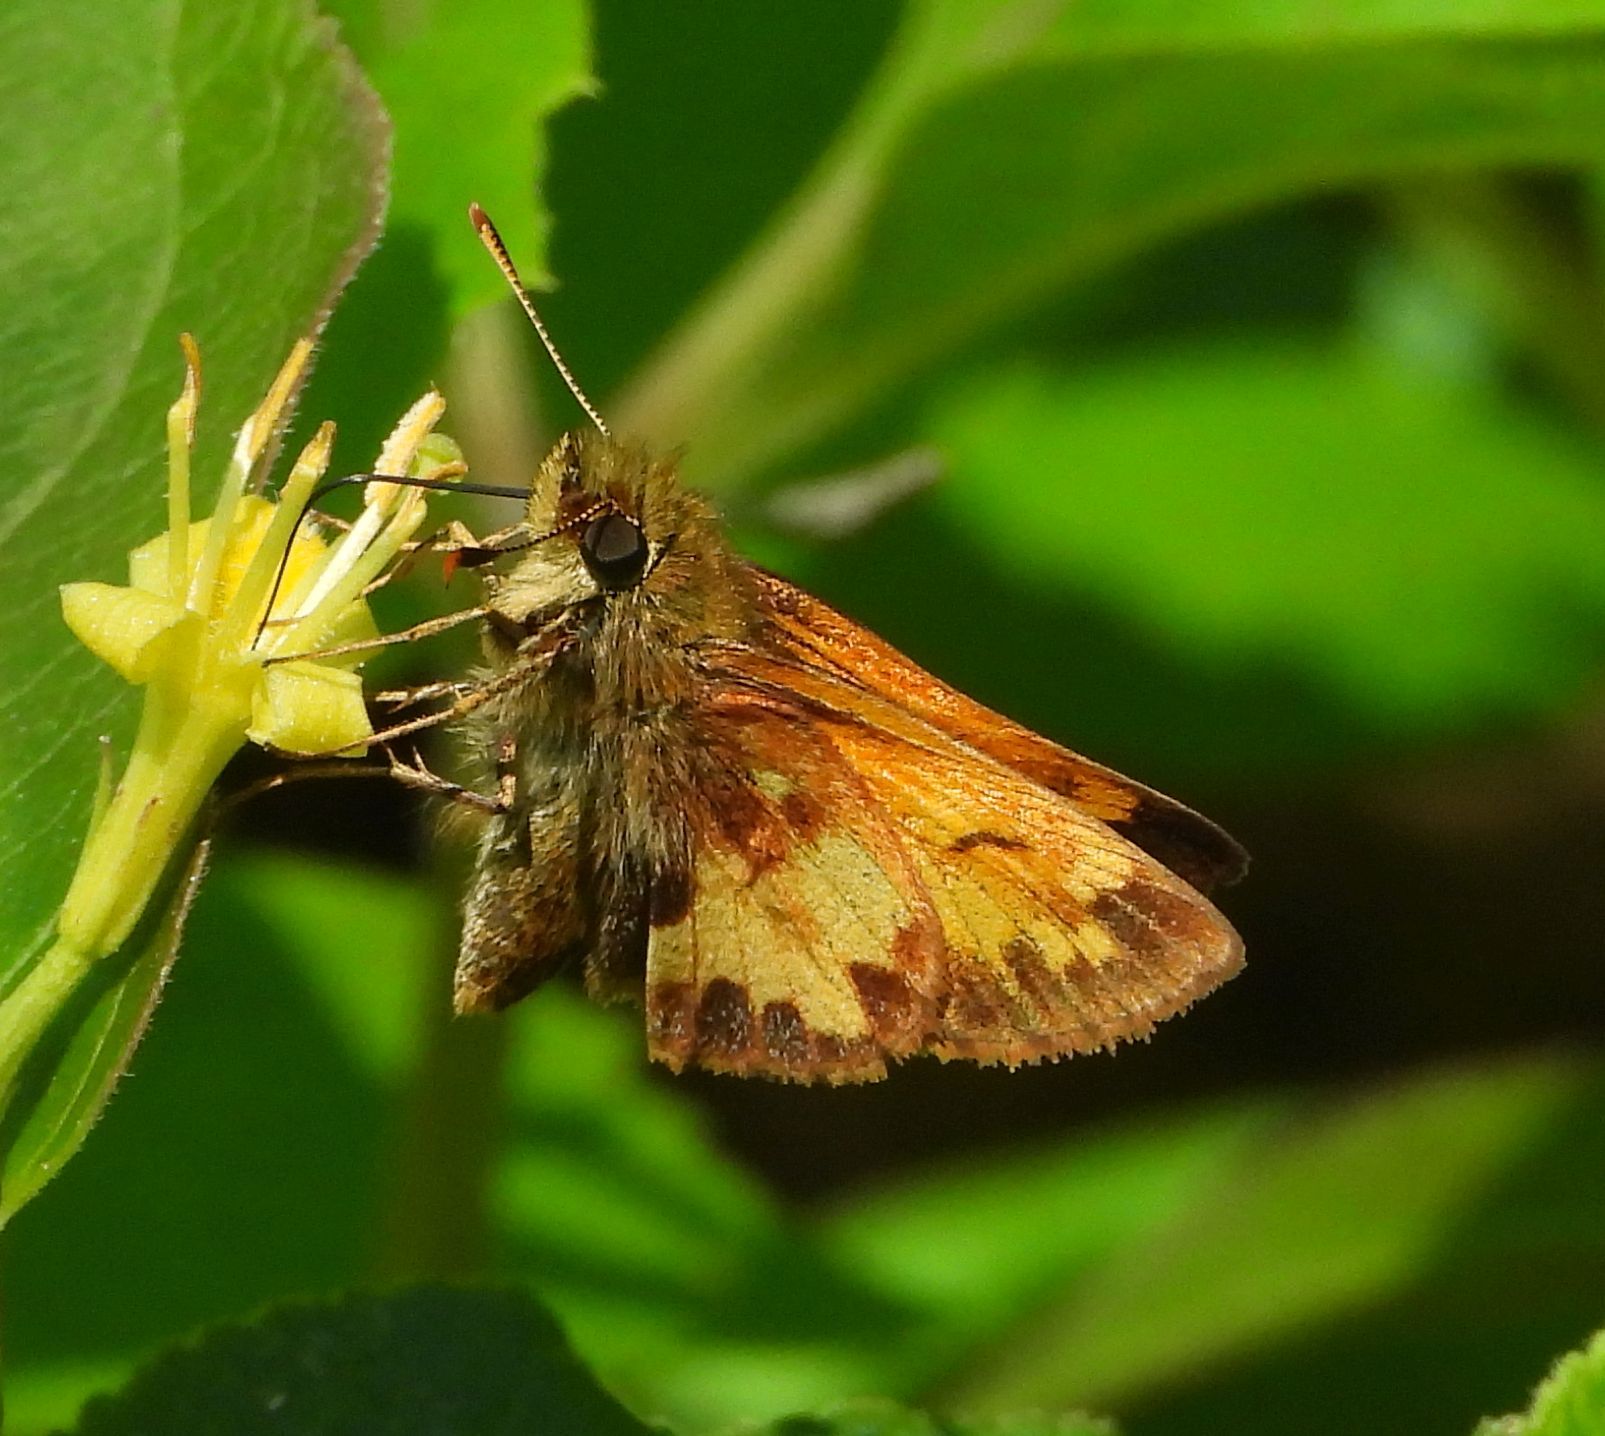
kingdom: Animalia
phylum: Arthropoda
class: Insecta
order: Lepidoptera
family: Hesperiidae
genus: Lon
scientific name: Lon hobomok
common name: Hobomok skipper
